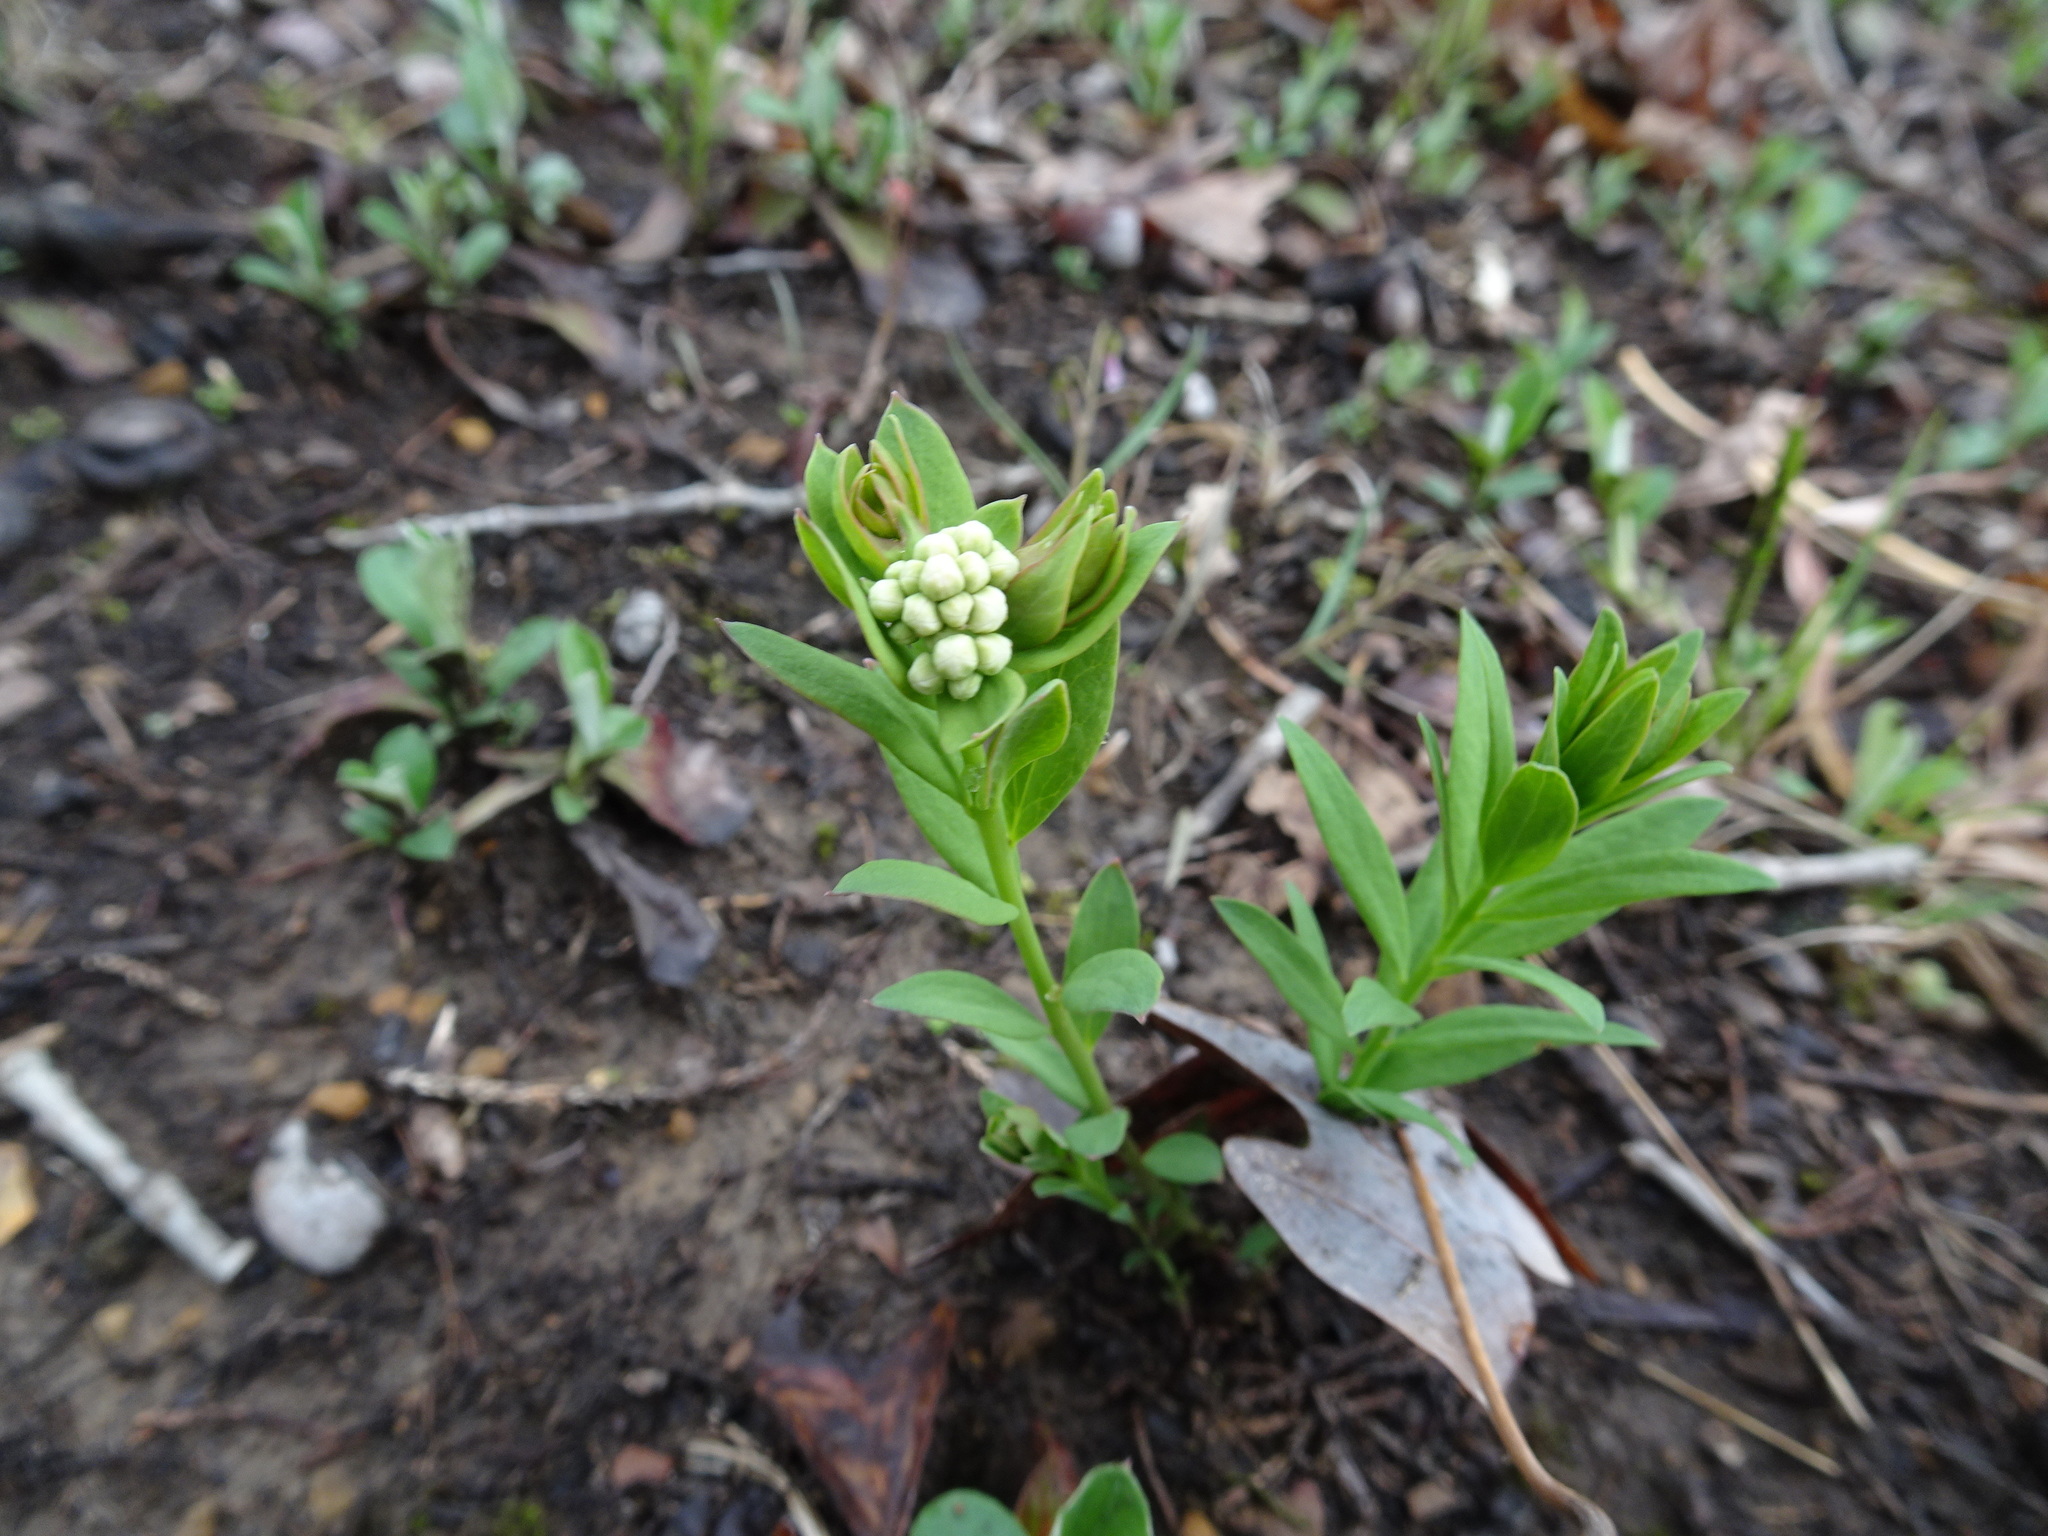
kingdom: Plantae
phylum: Tracheophyta
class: Magnoliopsida
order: Santalales
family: Comandraceae
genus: Comandra
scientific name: Comandra umbellata
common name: Bastard toadflax
